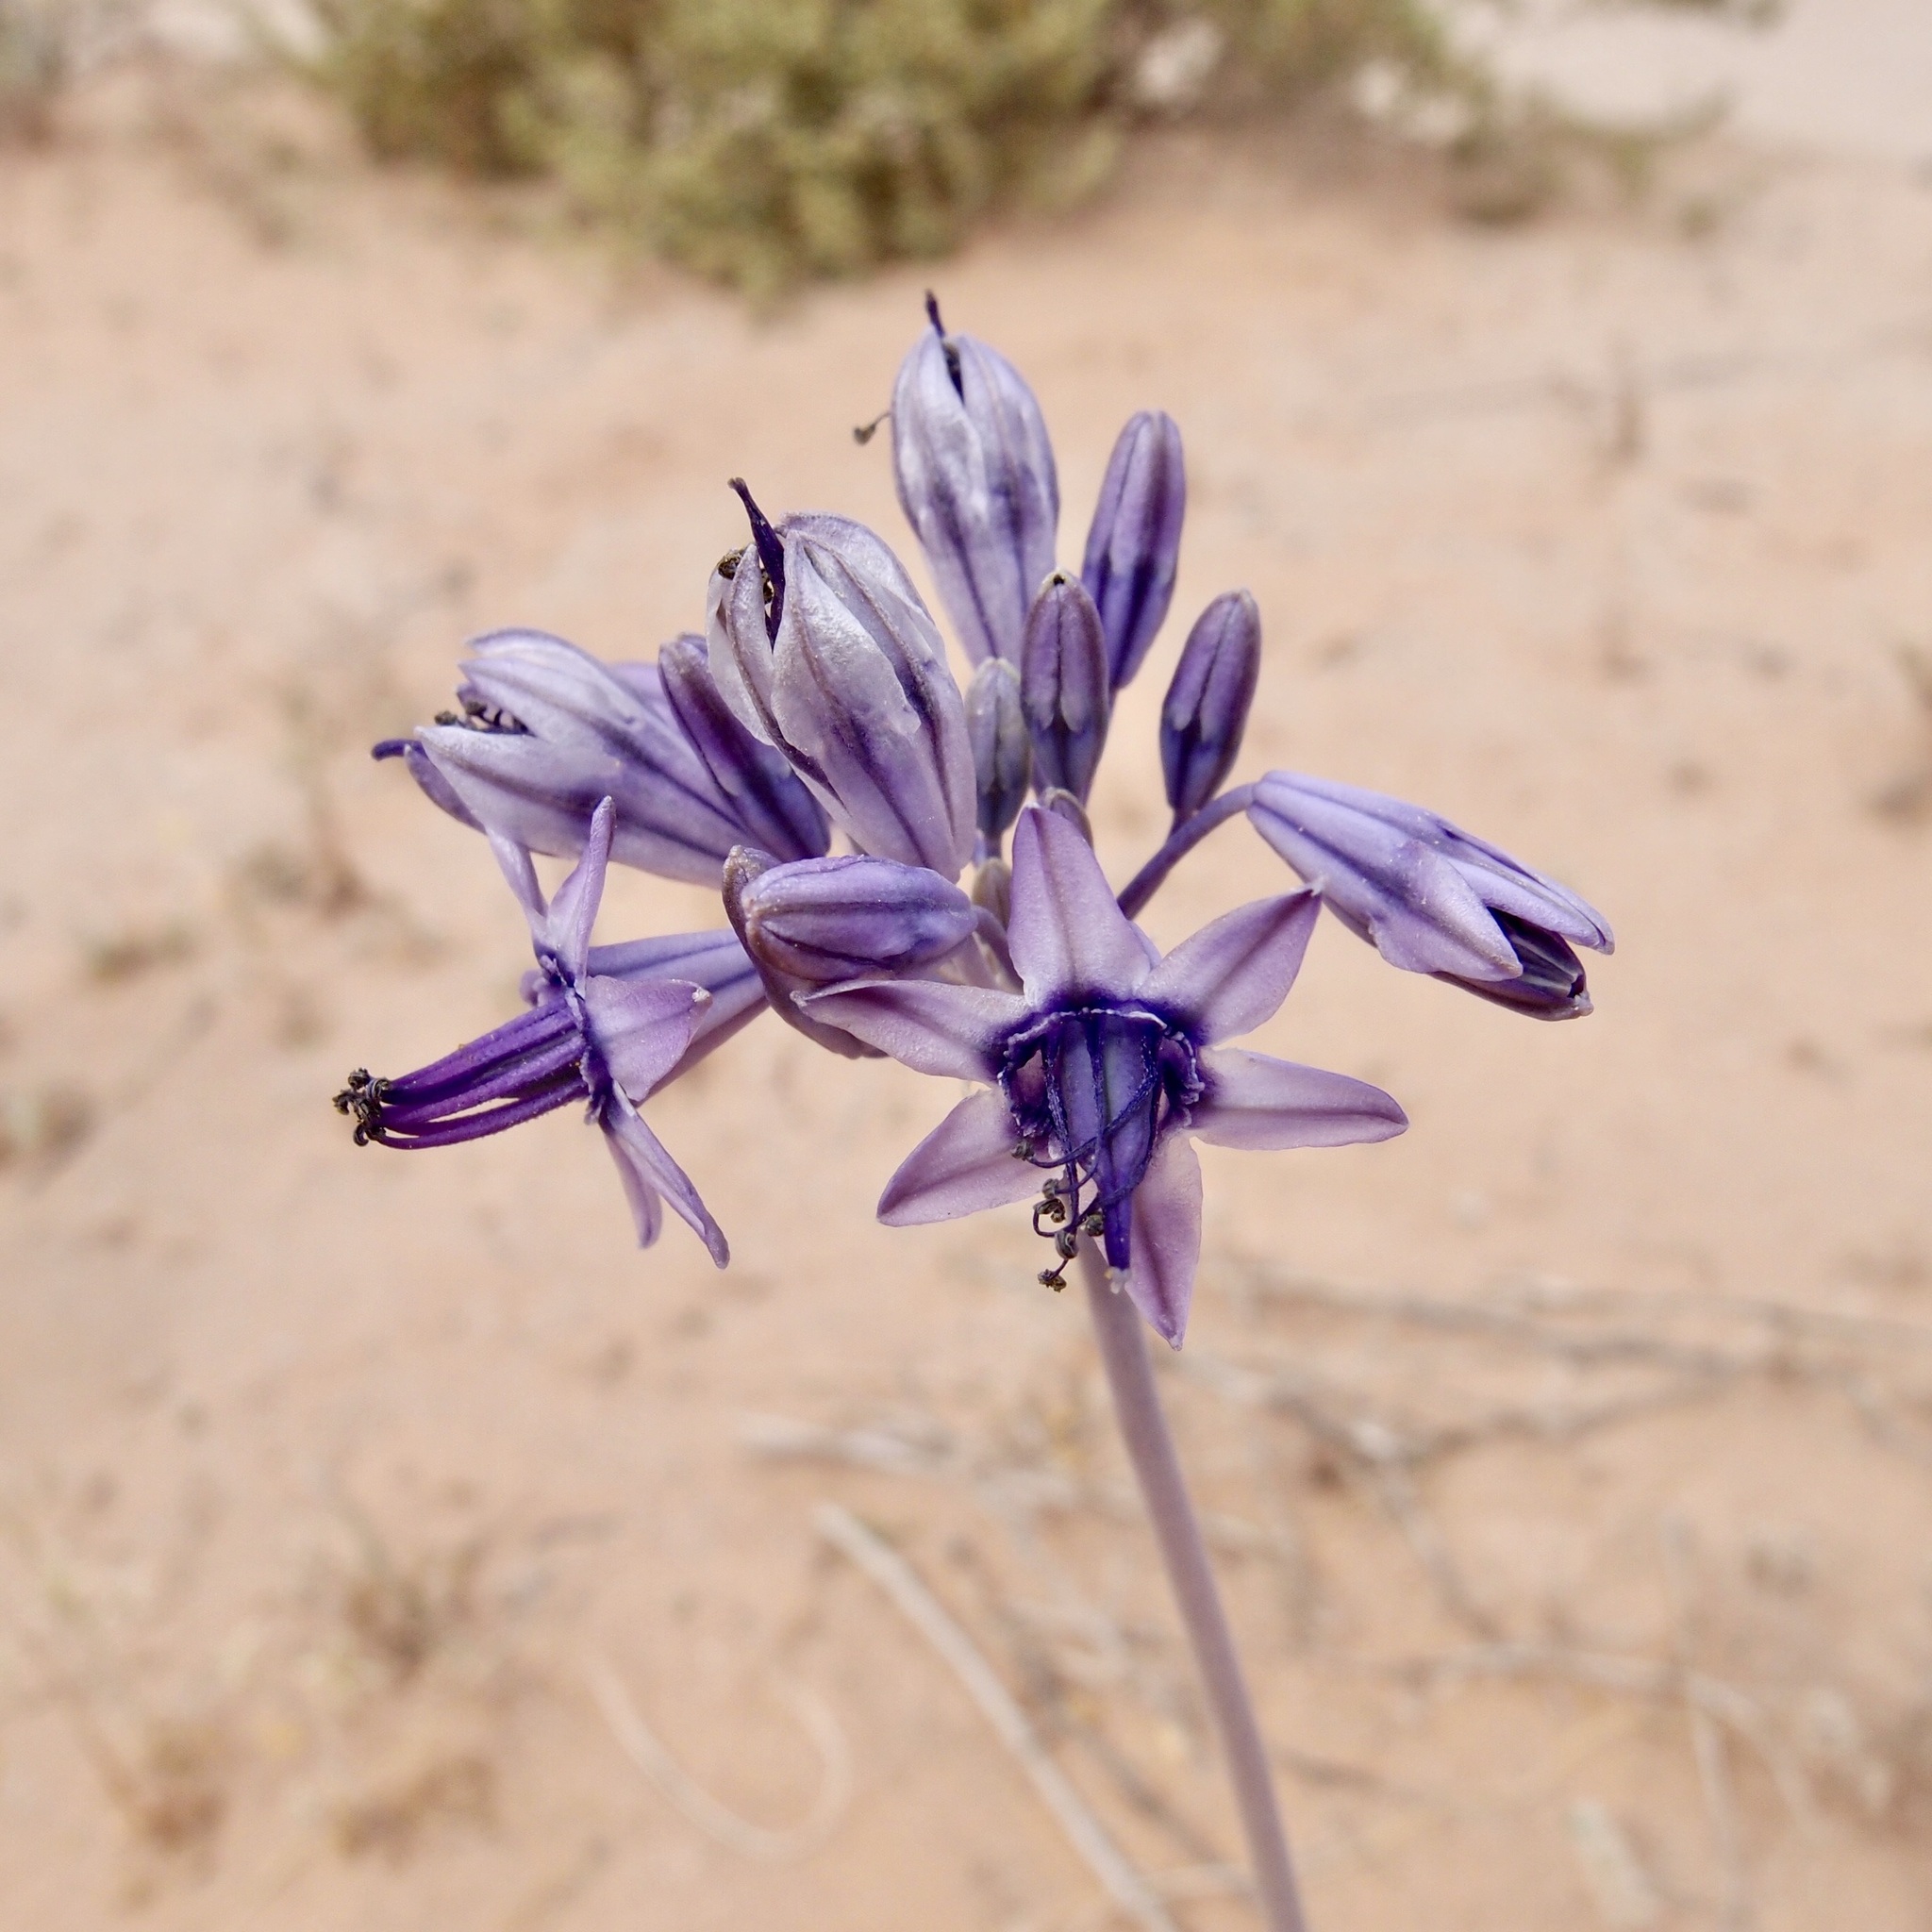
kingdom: Plantae
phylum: Tracheophyta
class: Liliopsida
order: Asparagales
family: Asparagaceae
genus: Triteleiopsis
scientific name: Triteleiopsis palmeri
